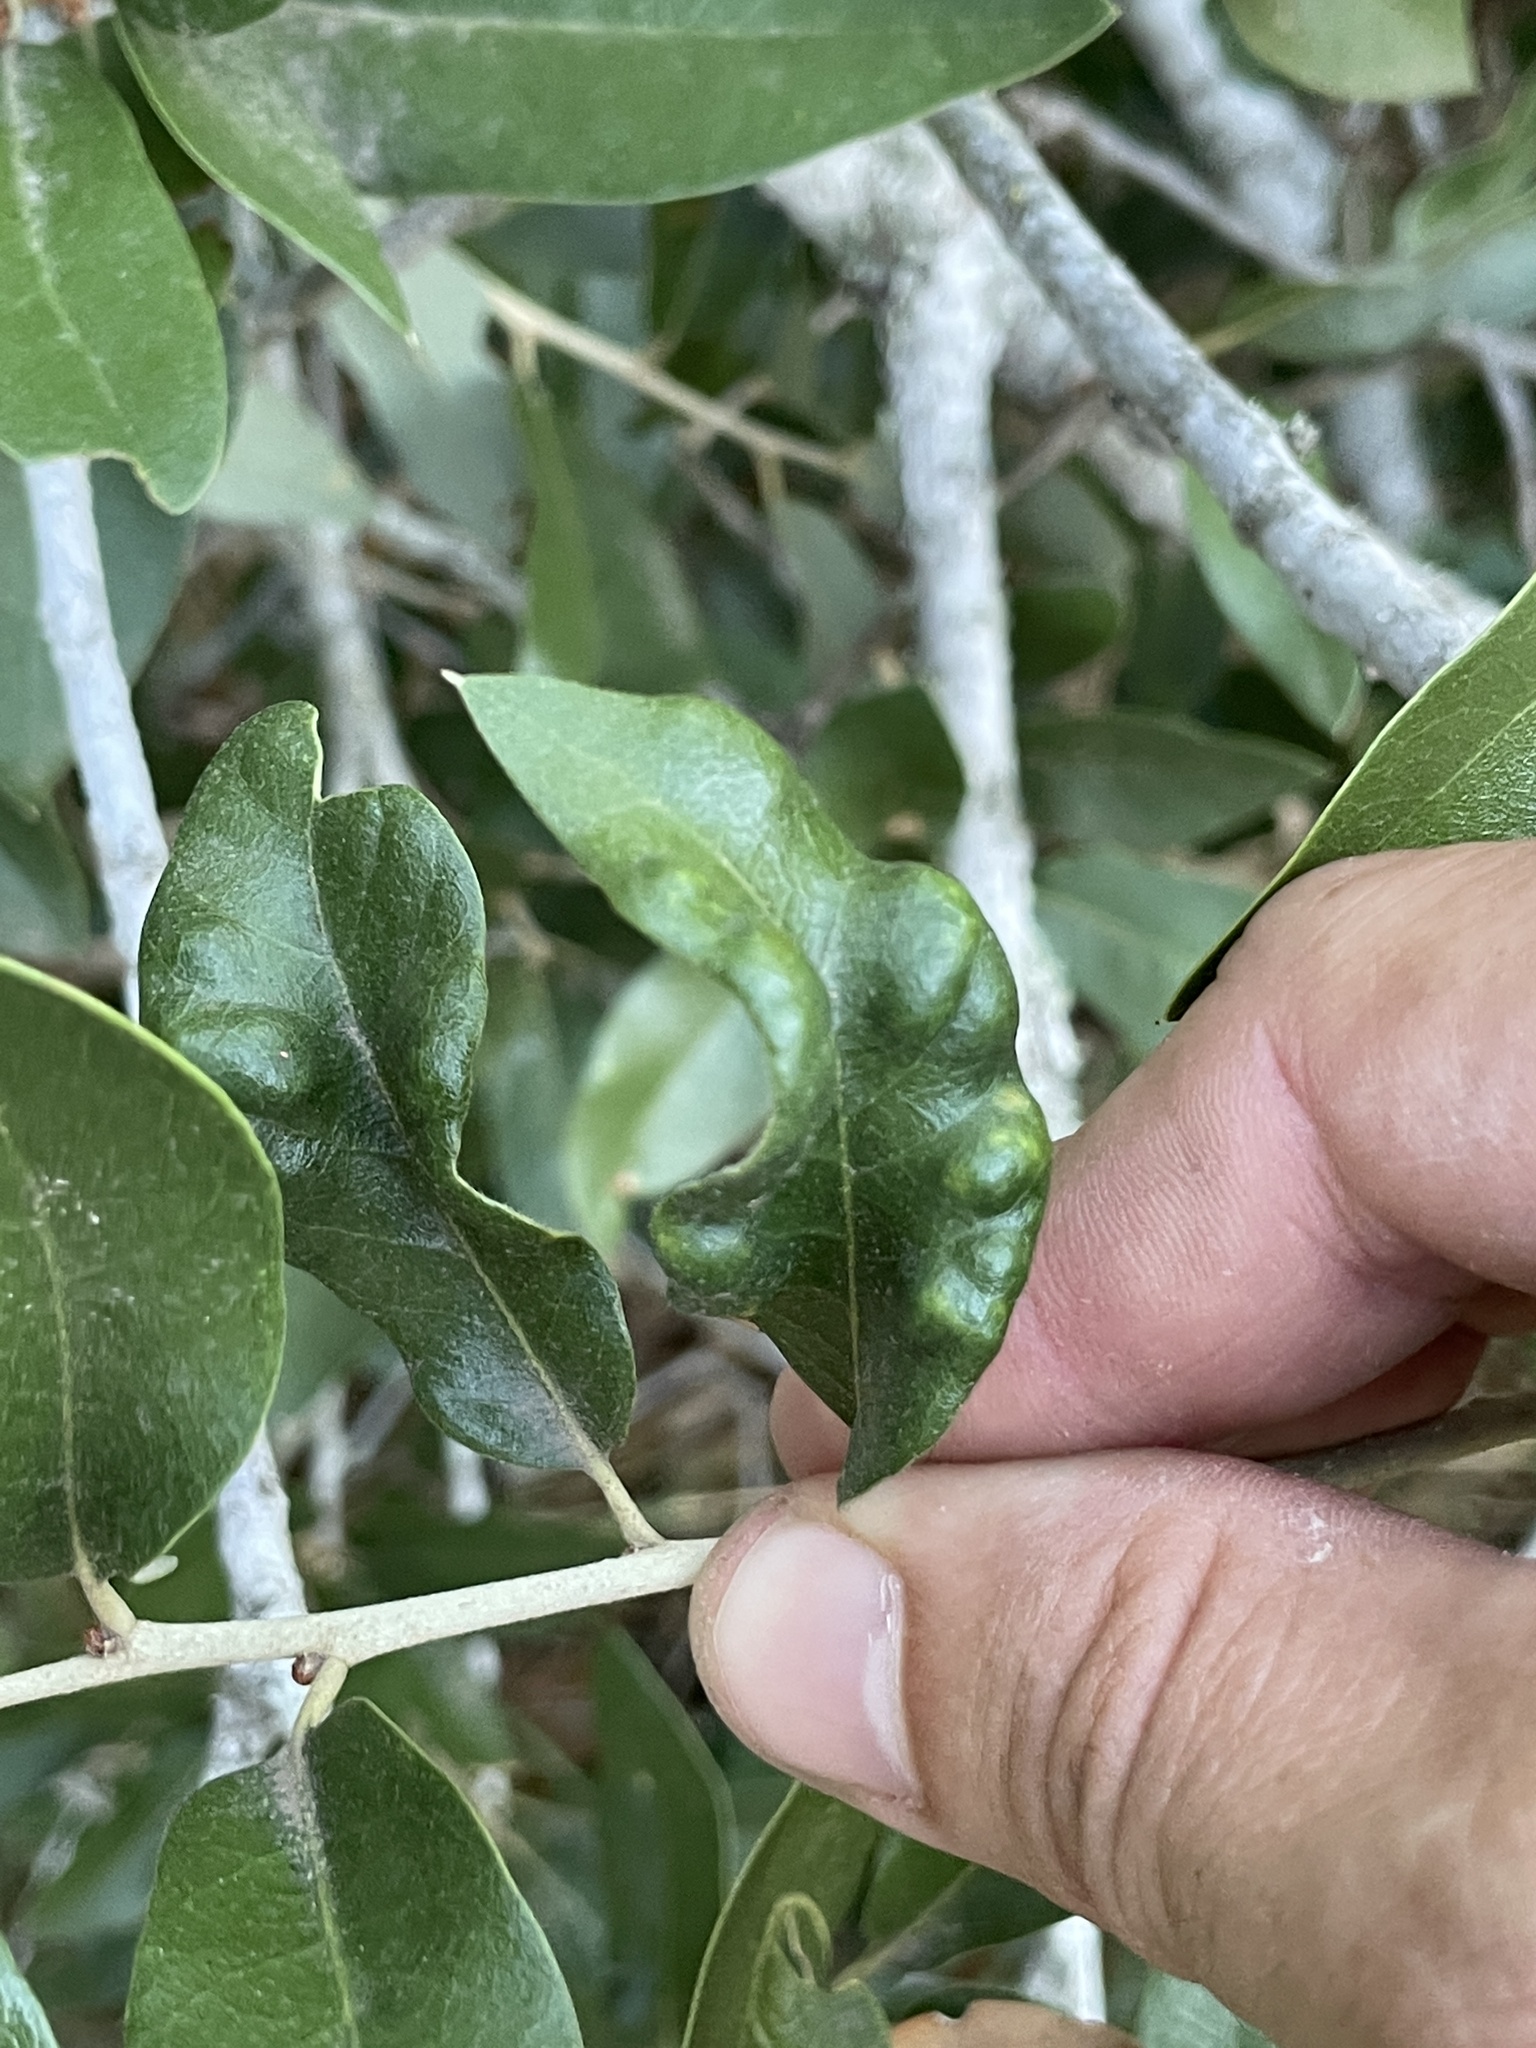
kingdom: Animalia
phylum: Arthropoda
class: Arachnida
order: Trombidiformes
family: Eriophyidae
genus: Aceria
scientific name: Aceria quercina
